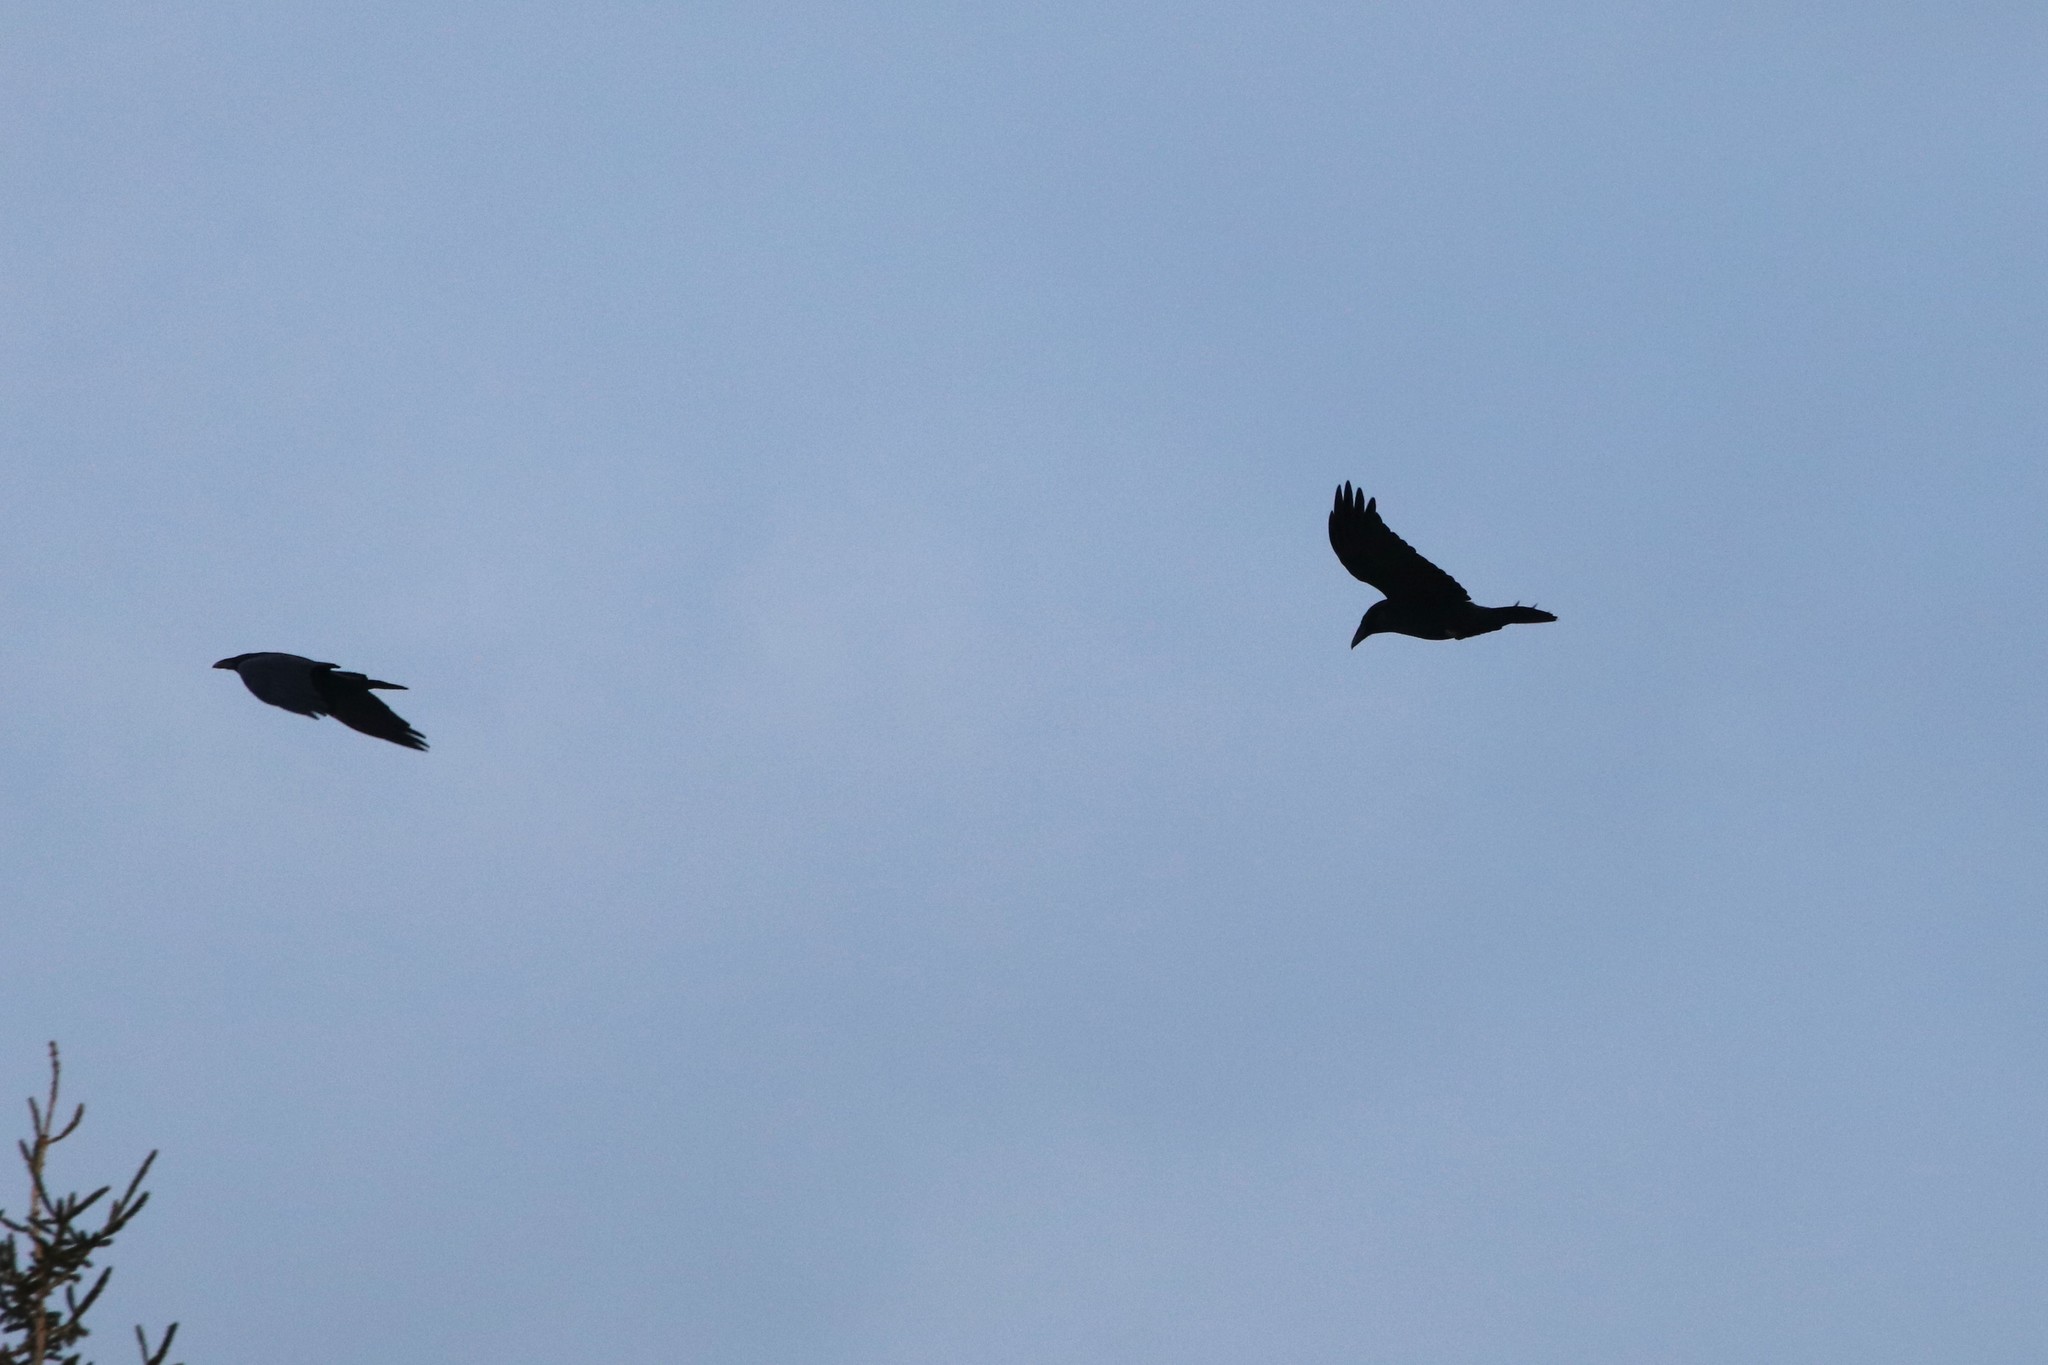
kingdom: Animalia
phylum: Chordata
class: Aves
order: Passeriformes
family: Corvidae
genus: Corvus
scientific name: Corvus corax
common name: Common raven
